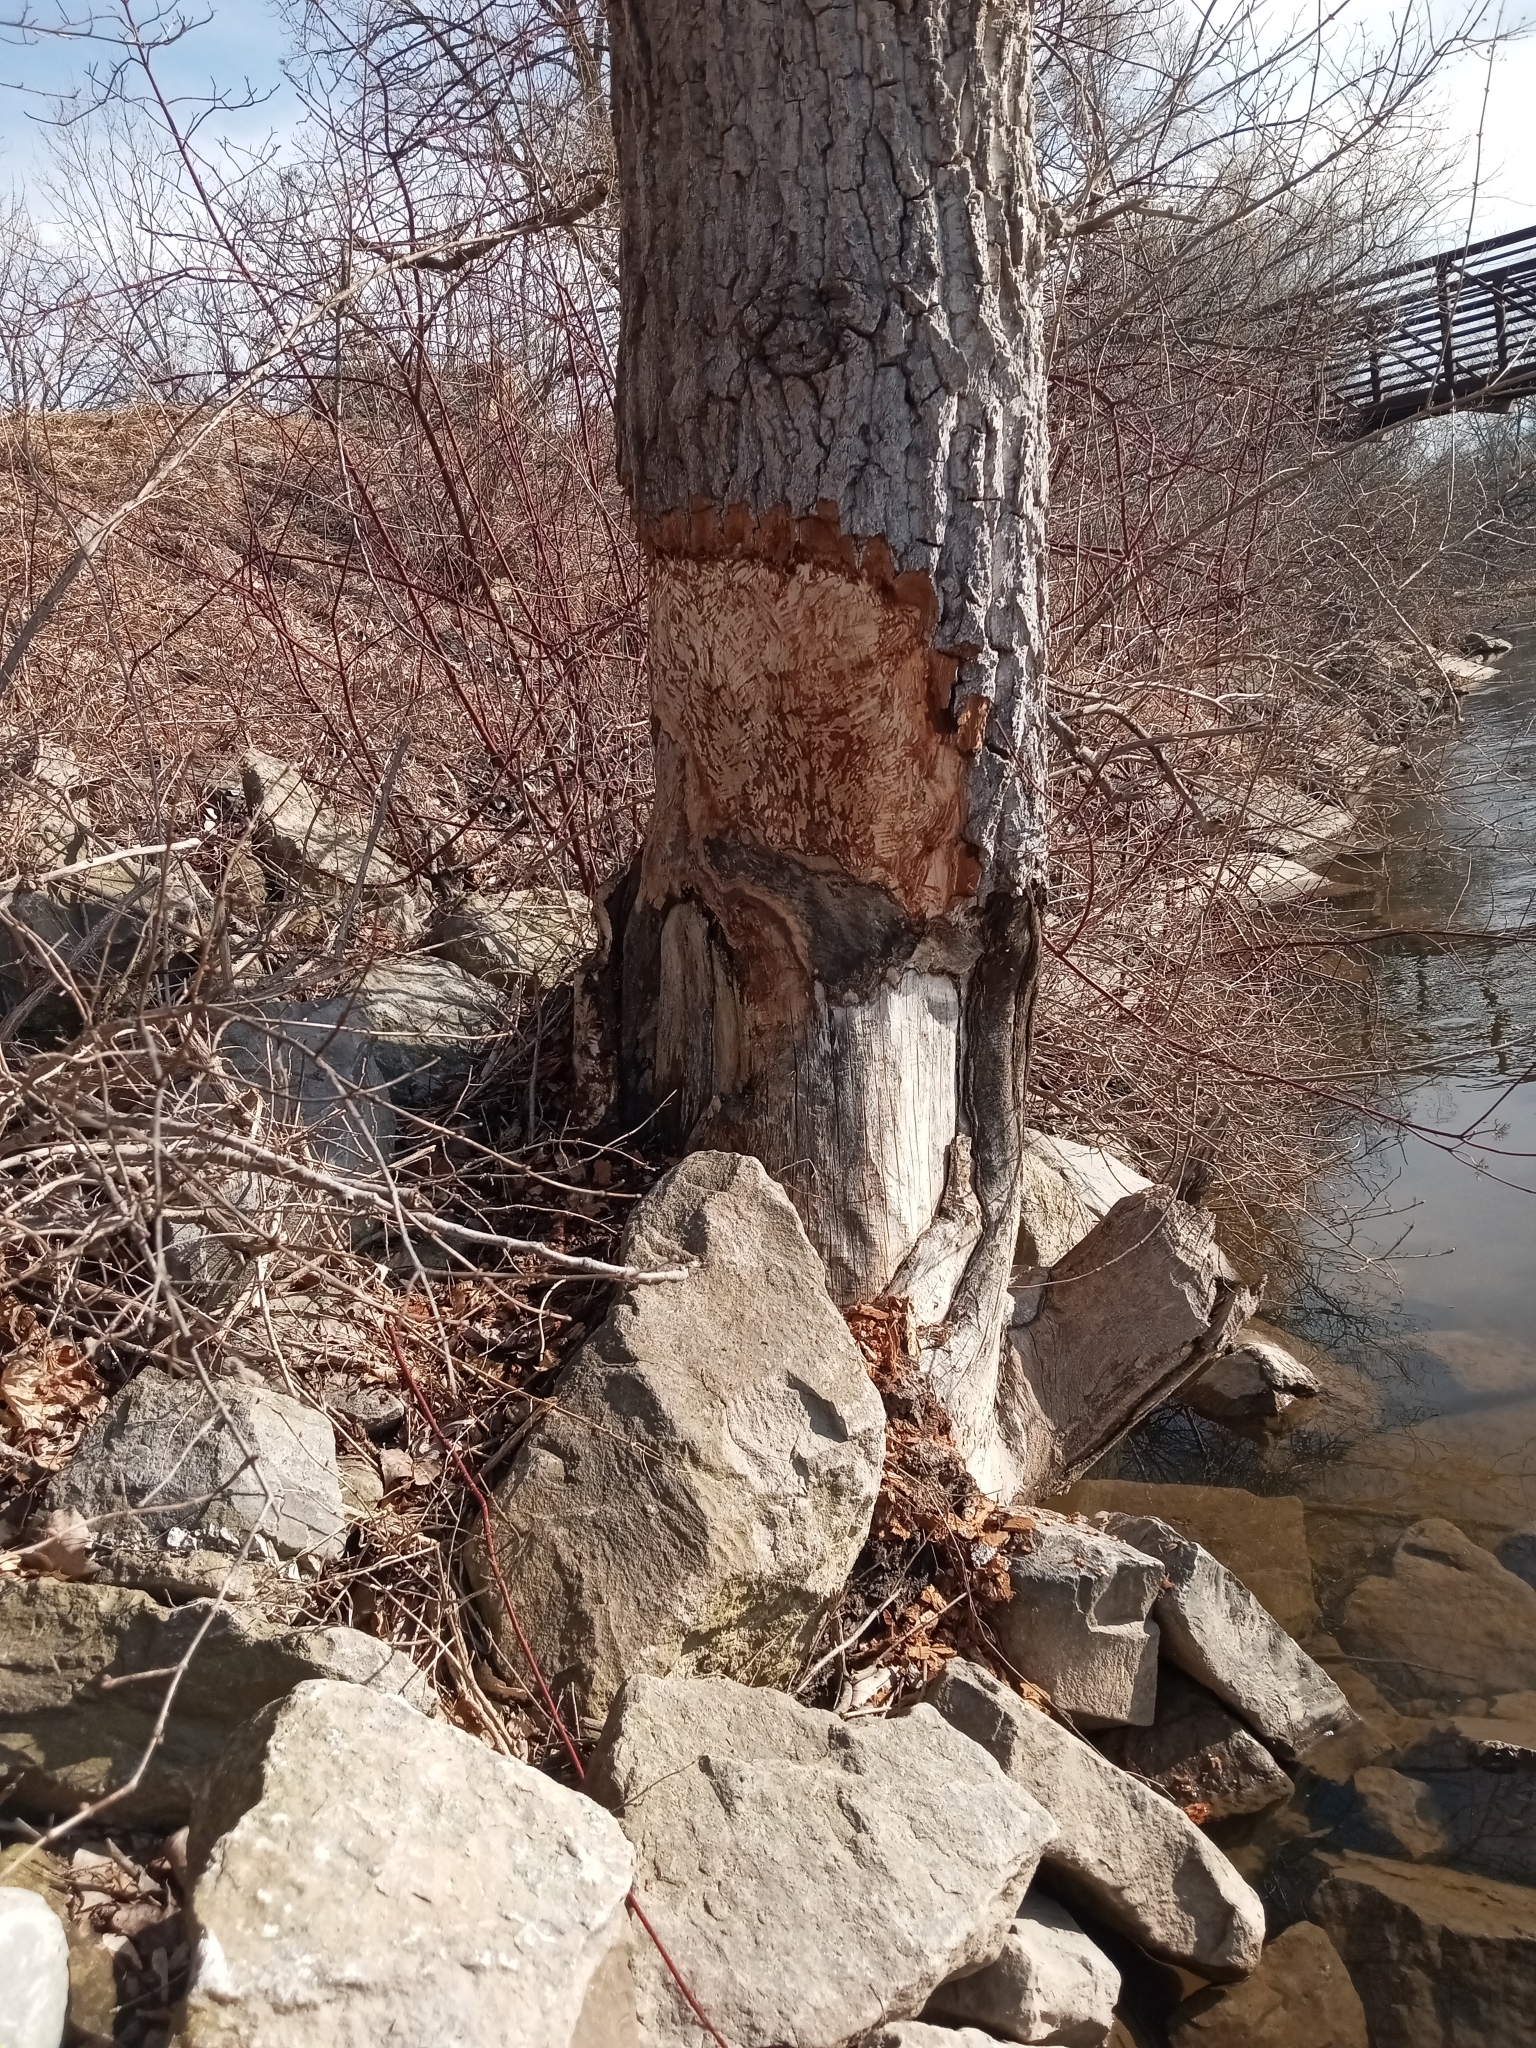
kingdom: Animalia
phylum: Chordata
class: Mammalia
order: Rodentia
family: Castoridae
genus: Castor
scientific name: Castor canadensis
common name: American beaver
